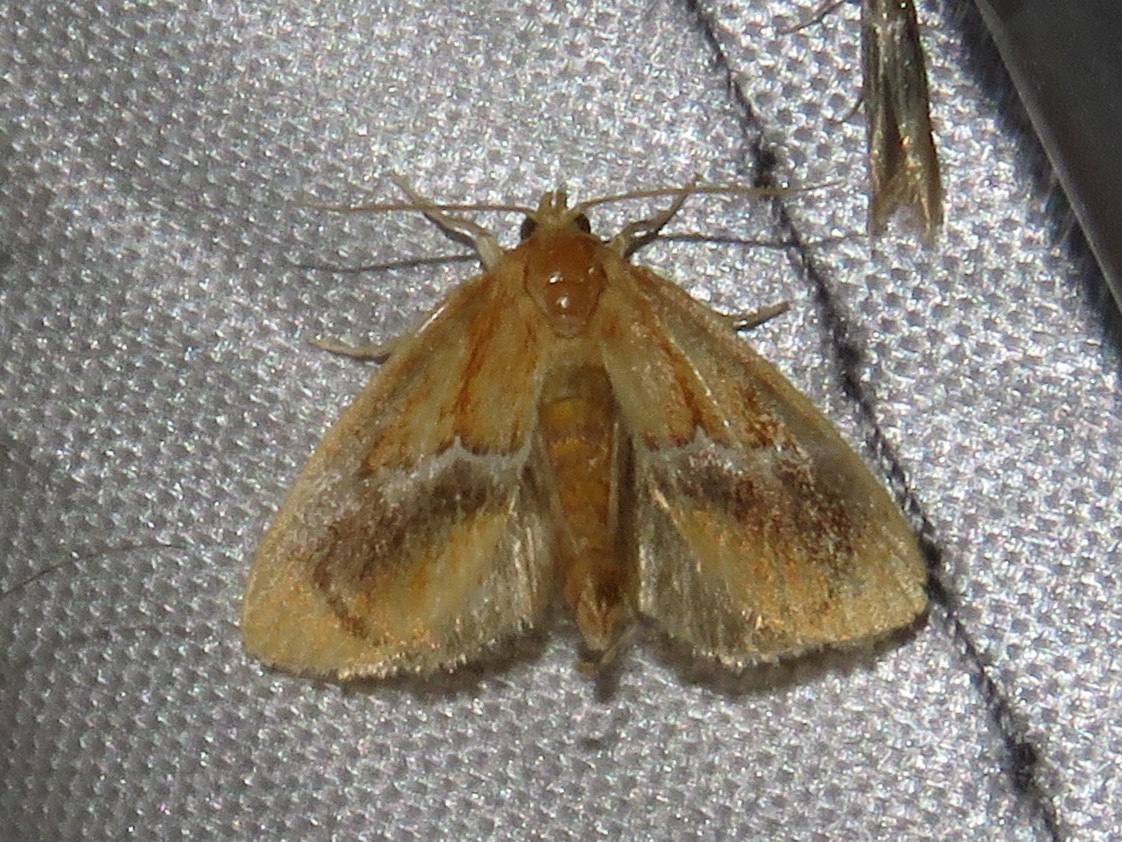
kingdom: Animalia
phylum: Arthropoda
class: Insecta
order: Lepidoptera
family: Limacodidae
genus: Lithacodes
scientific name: Lithacodes fasciola
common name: Yellow-shouldered slug moth
